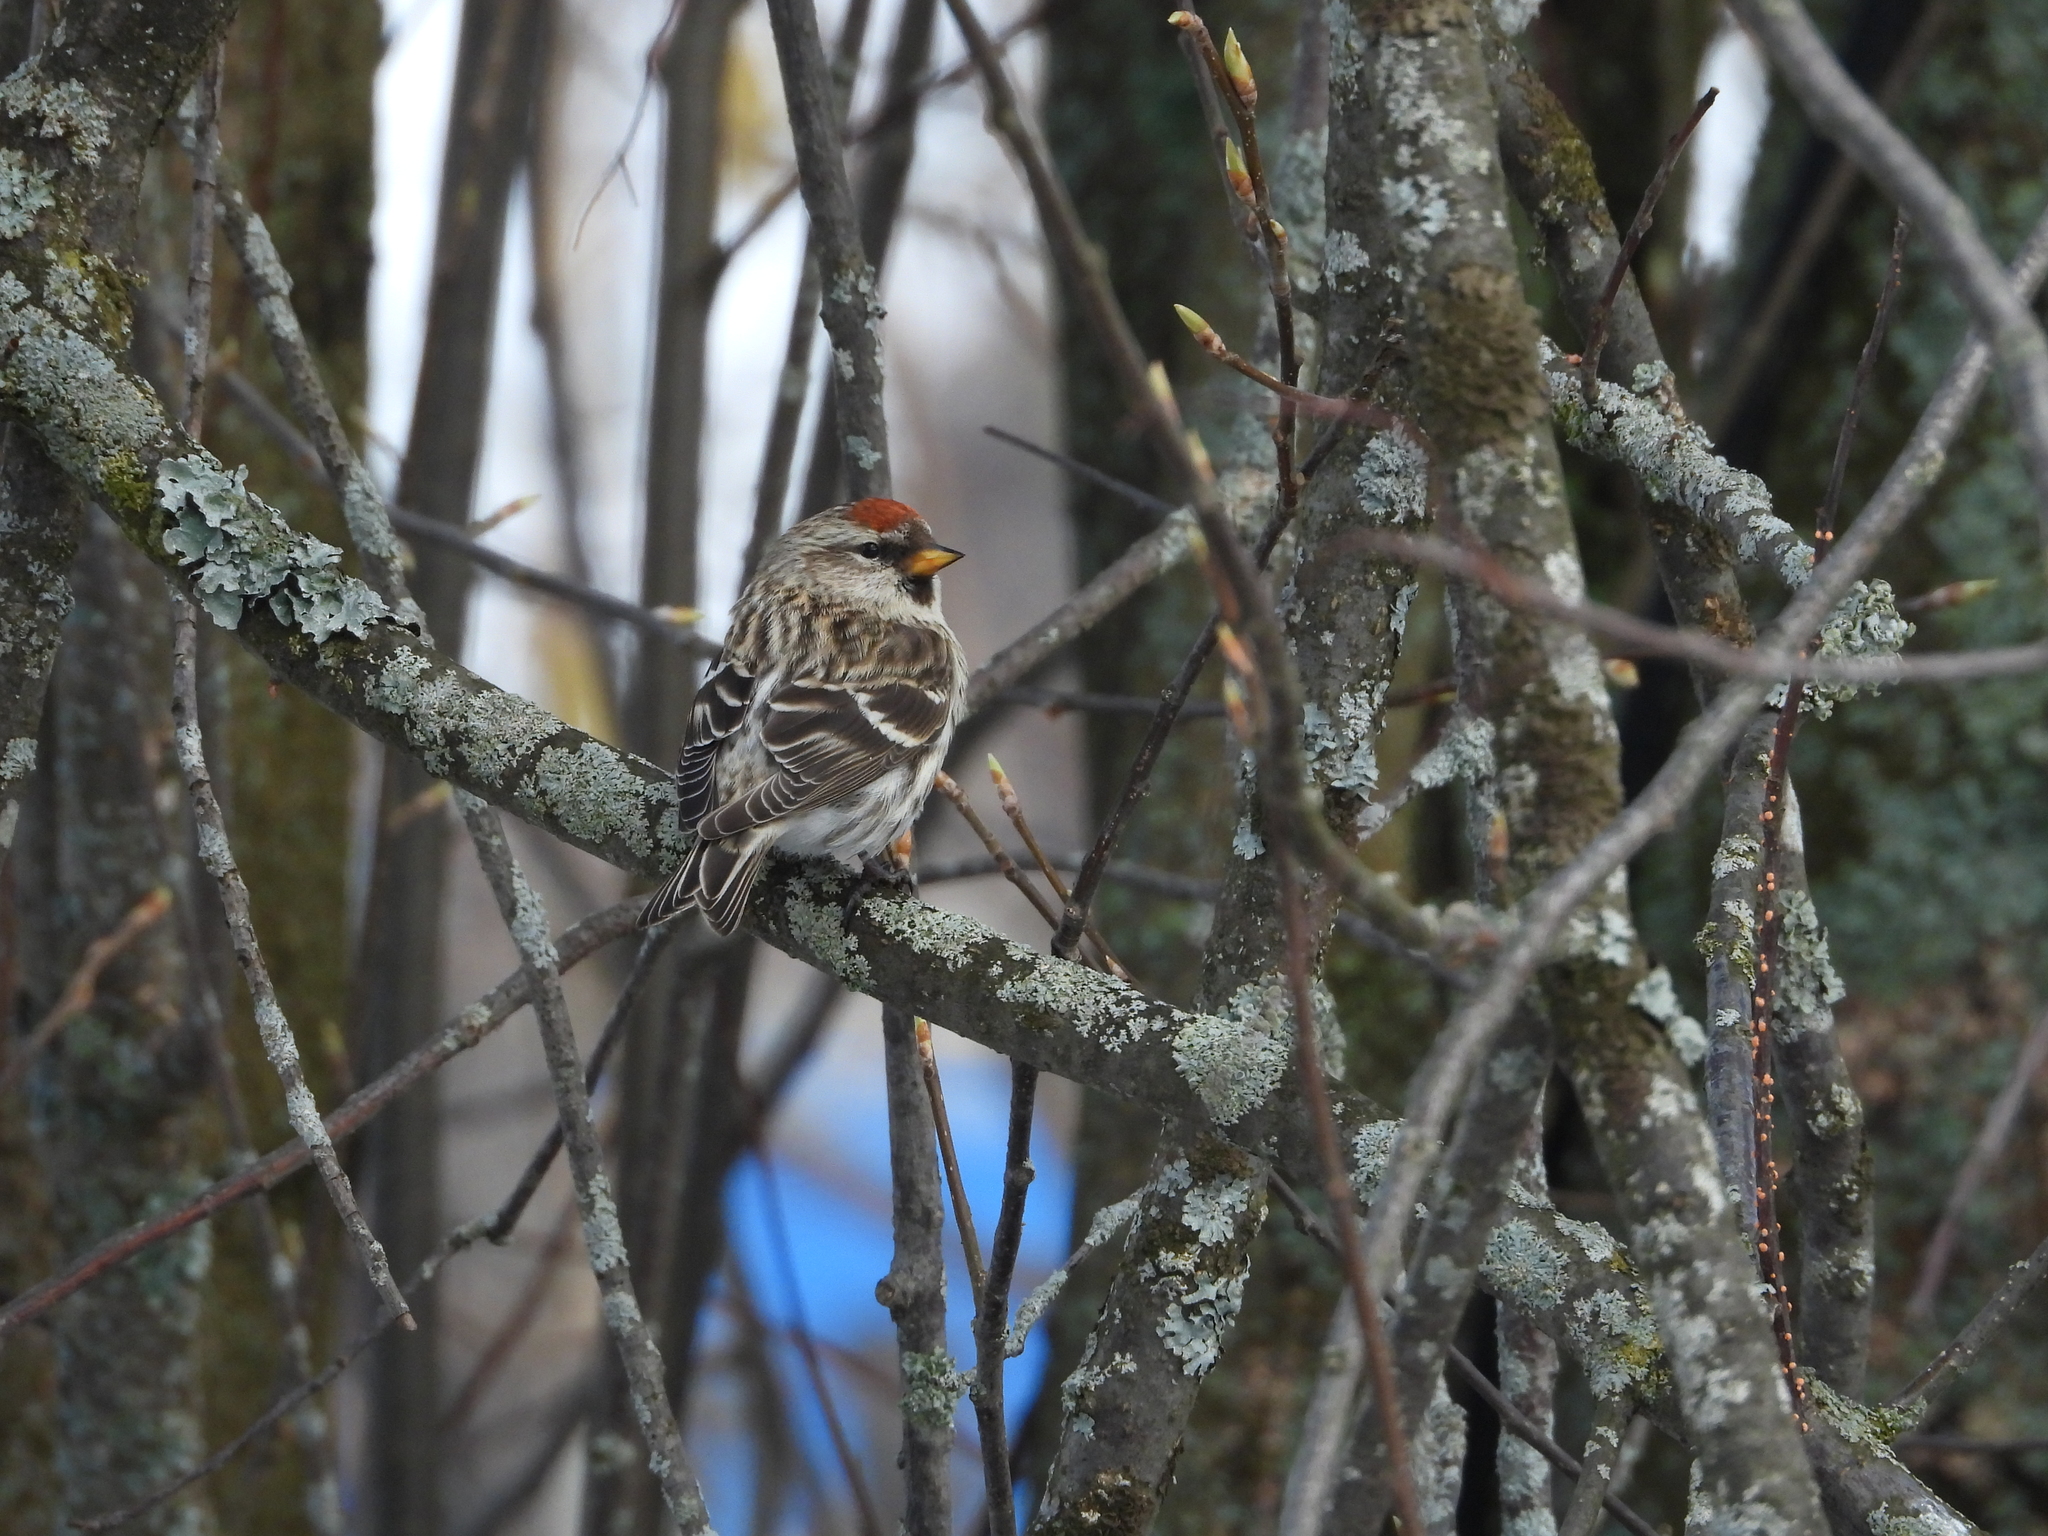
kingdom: Animalia
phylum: Chordata
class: Aves
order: Passeriformes
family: Fringillidae
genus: Acanthis
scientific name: Acanthis flammea
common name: Common redpoll
